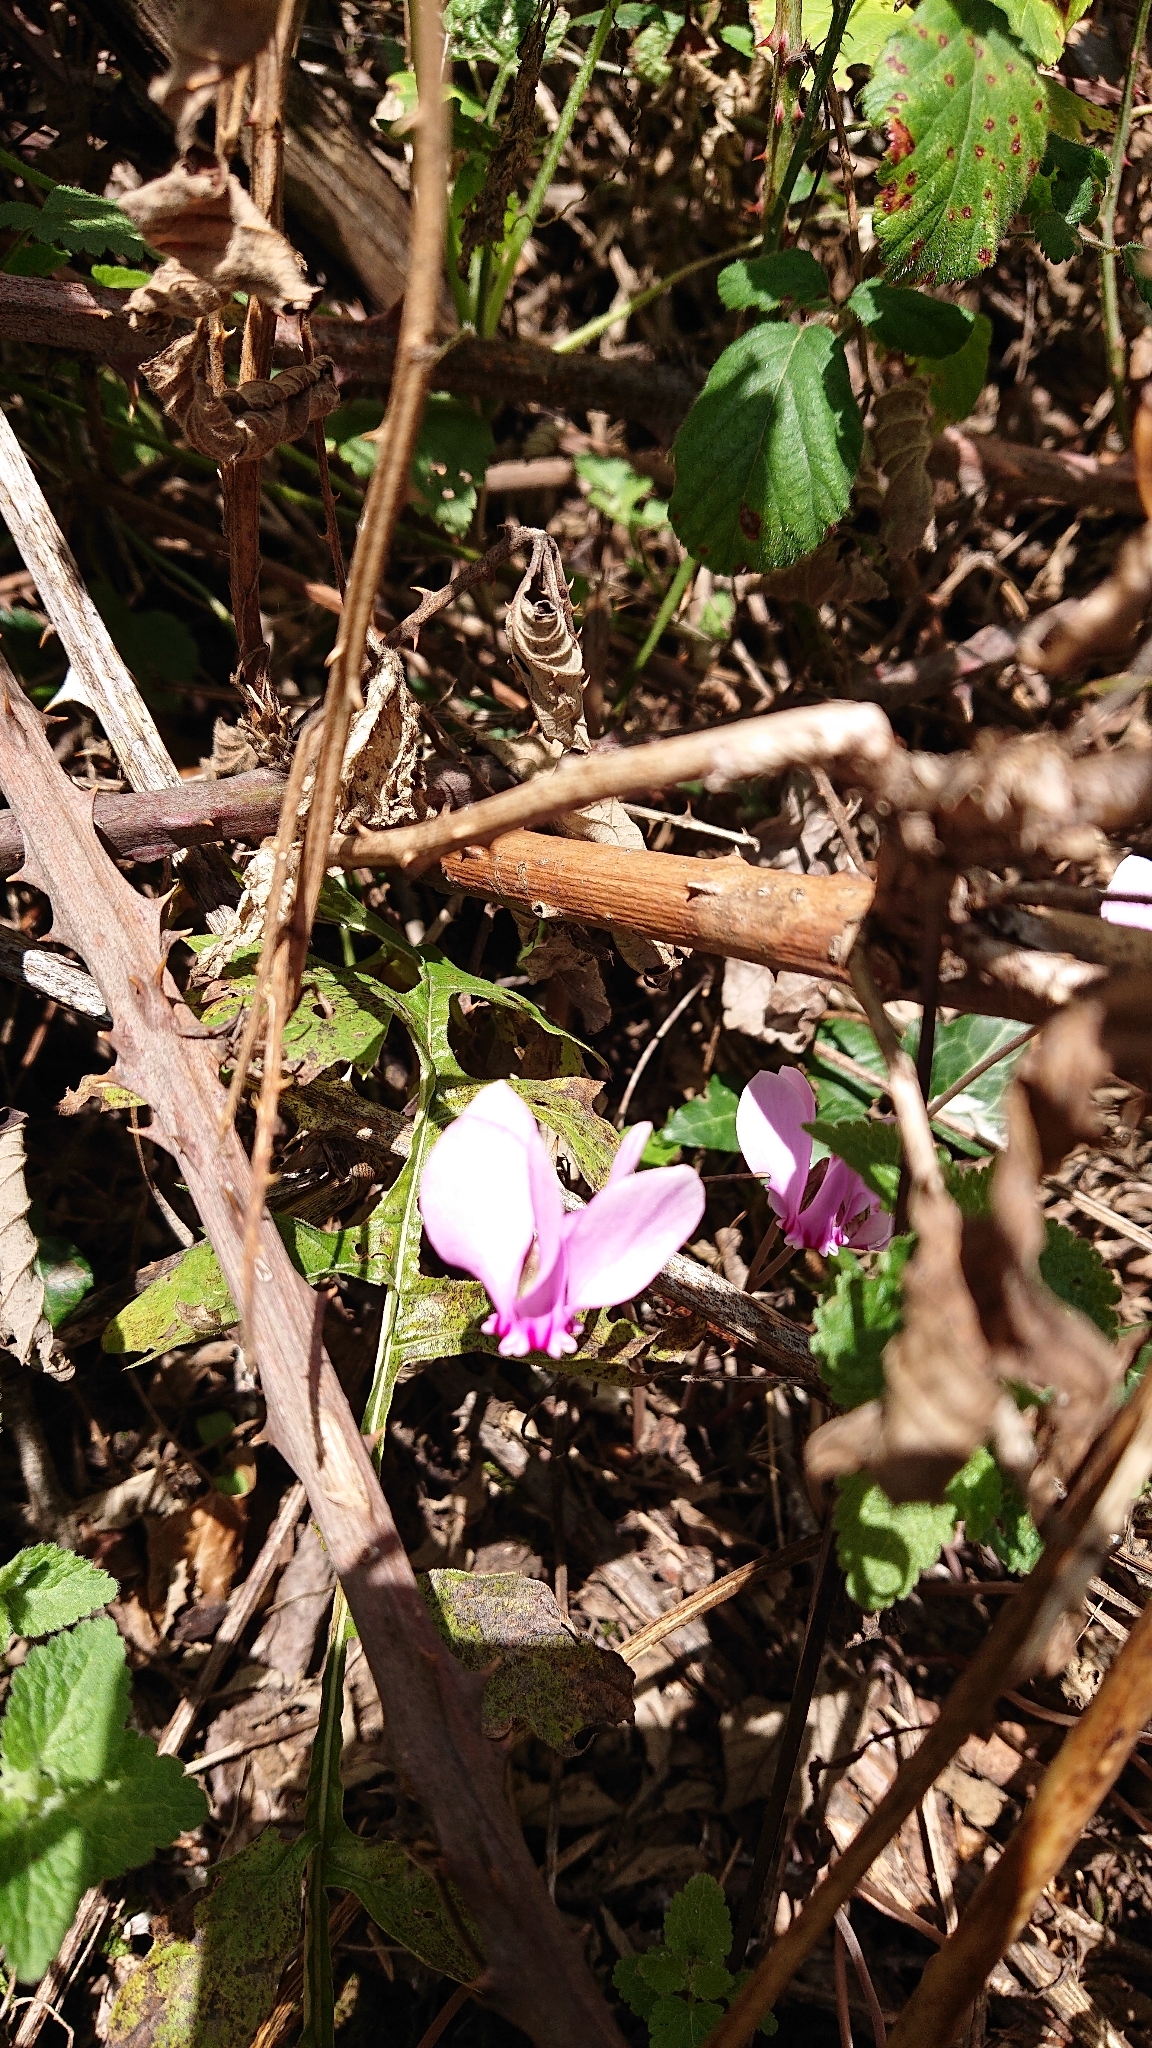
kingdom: Plantae
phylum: Tracheophyta
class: Magnoliopsida
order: Ericales
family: Primulaceae
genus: Cyclamen
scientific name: Cyclamen hederifolium
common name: Sowbread
